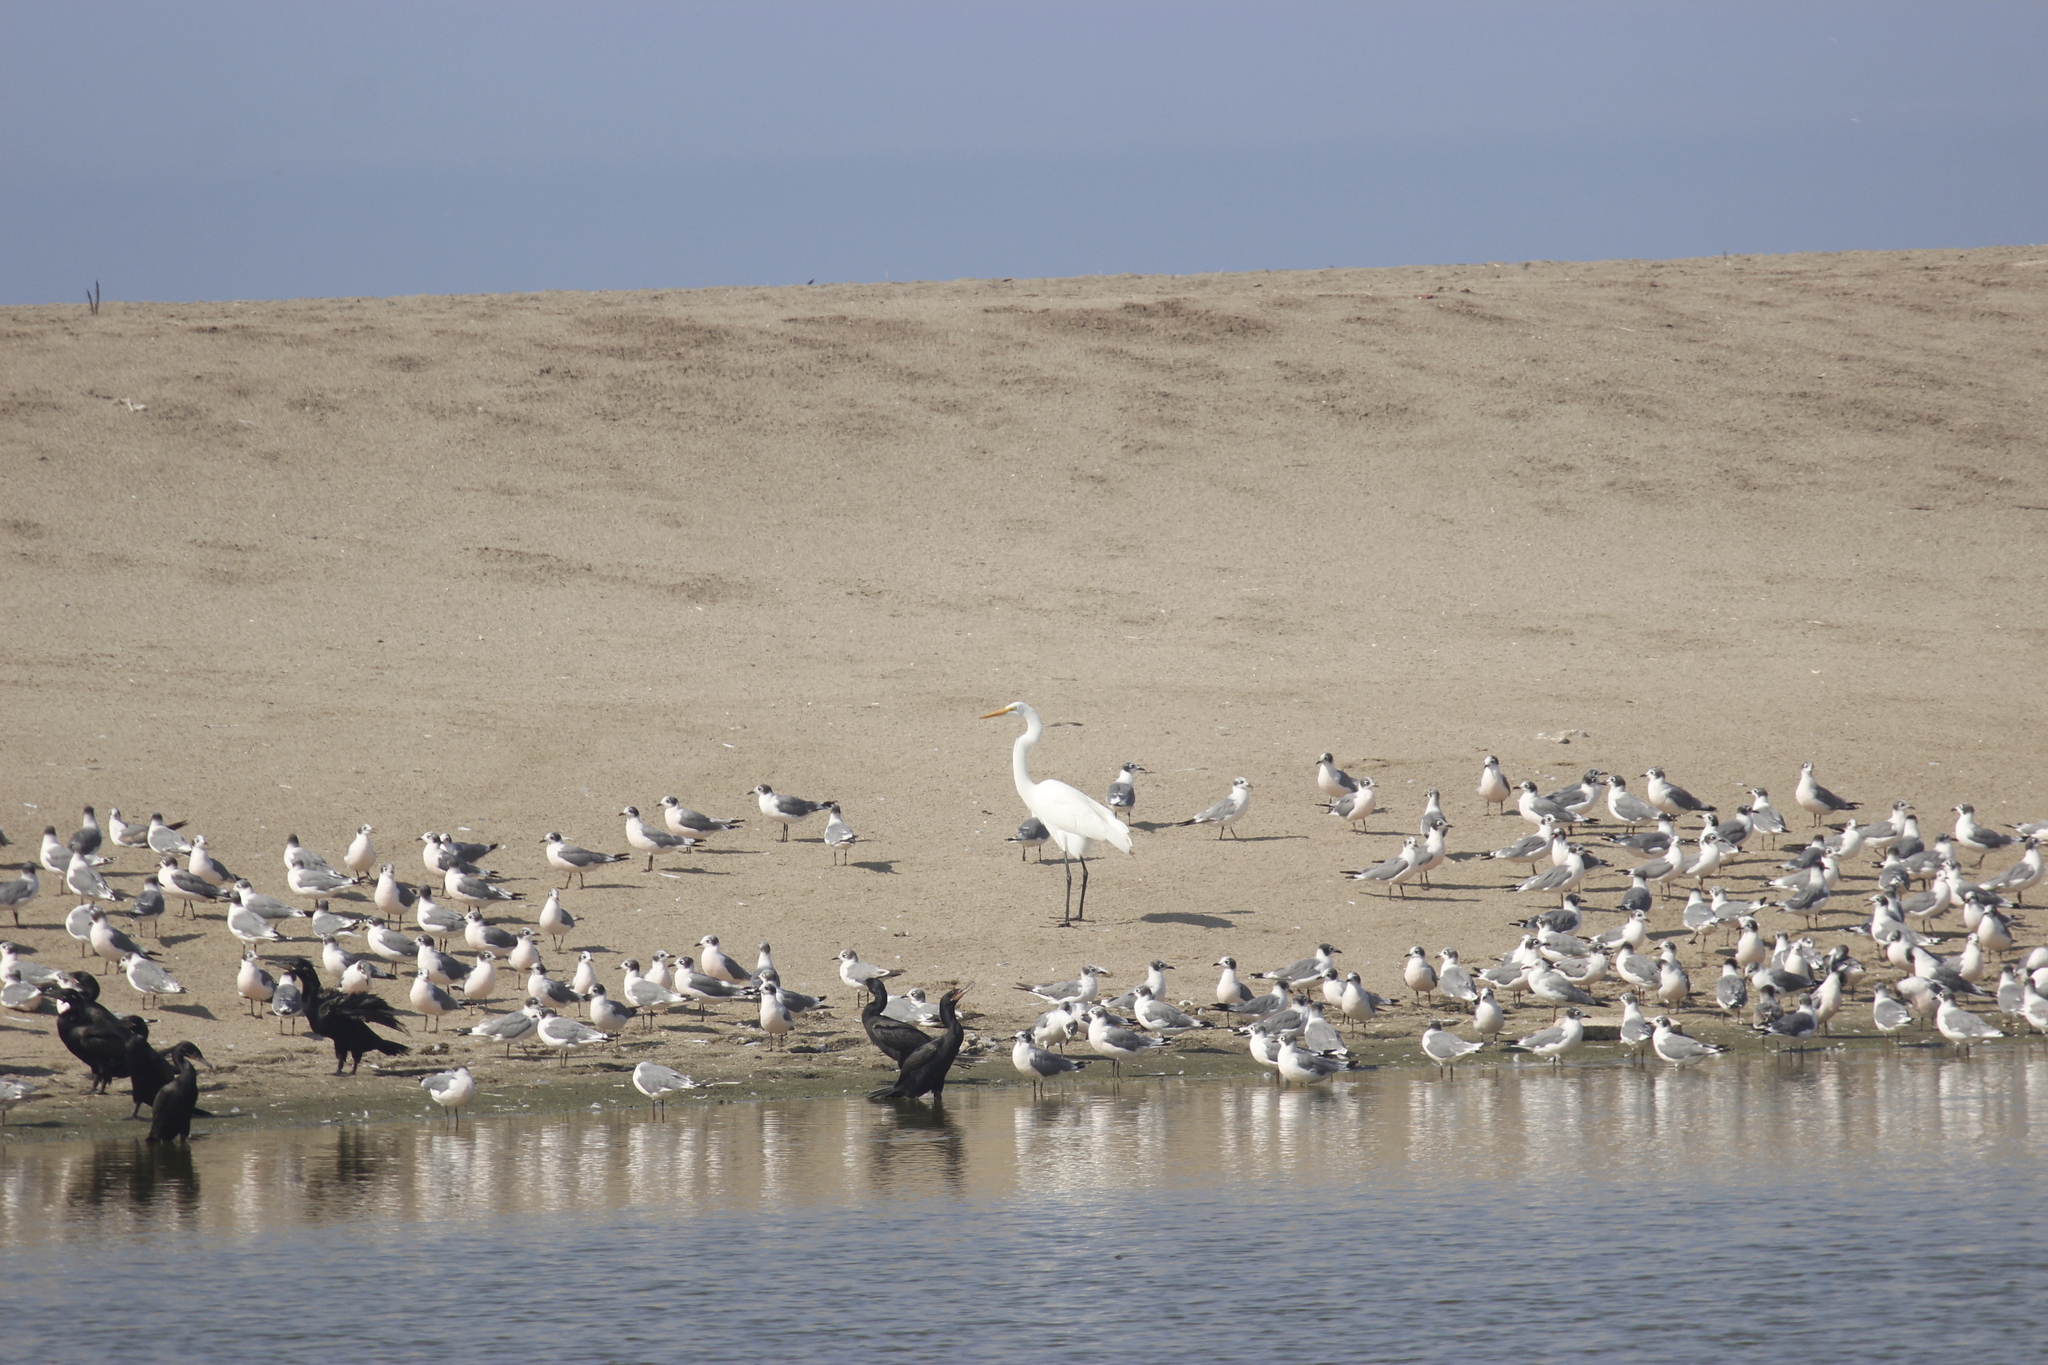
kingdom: Animalia
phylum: Chordata
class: Aves
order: Pelecaniformes
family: Ardeidae
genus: Ardea
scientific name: Ardea alba
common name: Great egret
